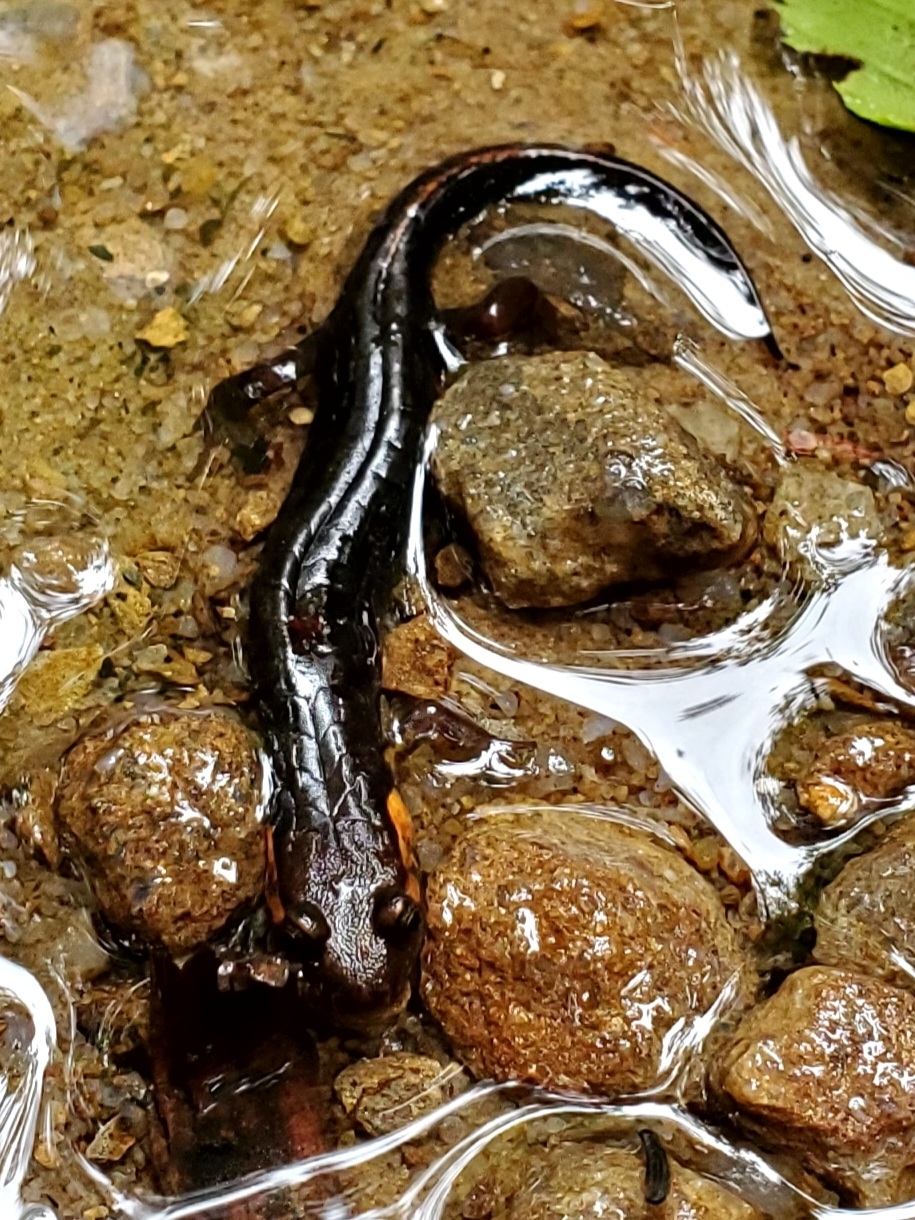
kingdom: Animalia
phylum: Chordata
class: Amphibia
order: Caudata
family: Plethodontidae
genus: Desmognathus
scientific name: Desmognathus imitator
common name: Imitator salamander
